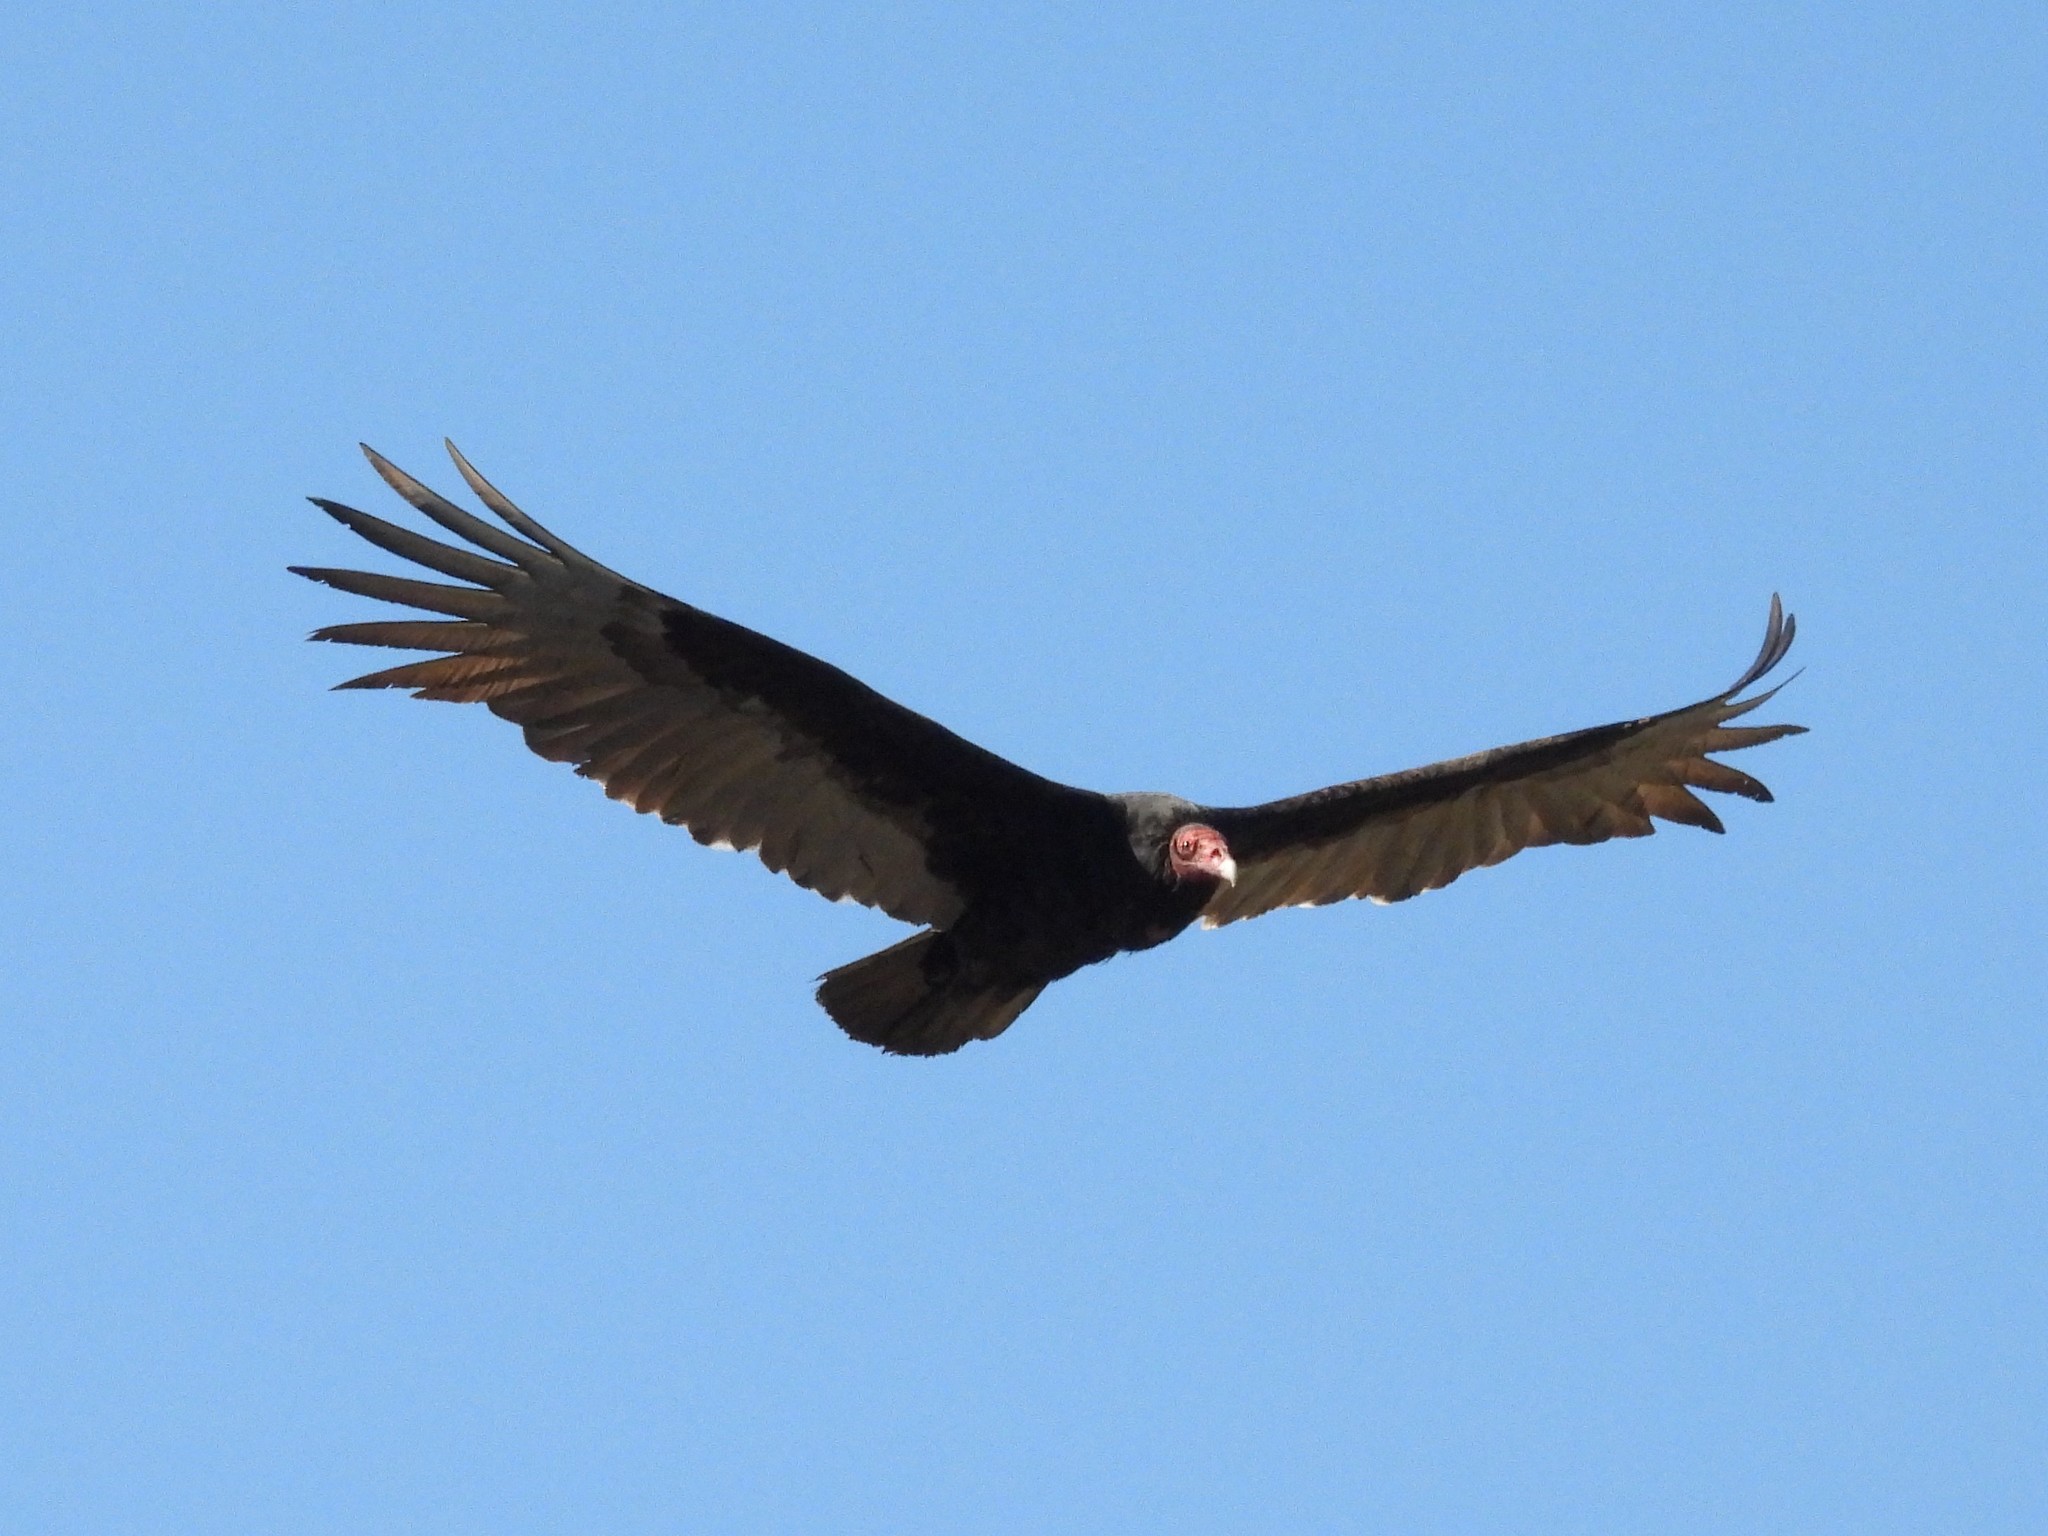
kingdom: Animalia
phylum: Chordata
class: Aves
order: Accipitriformes
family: Cathartidae
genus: Cathartes
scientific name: Cathartes aura
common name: Turkey vulture
